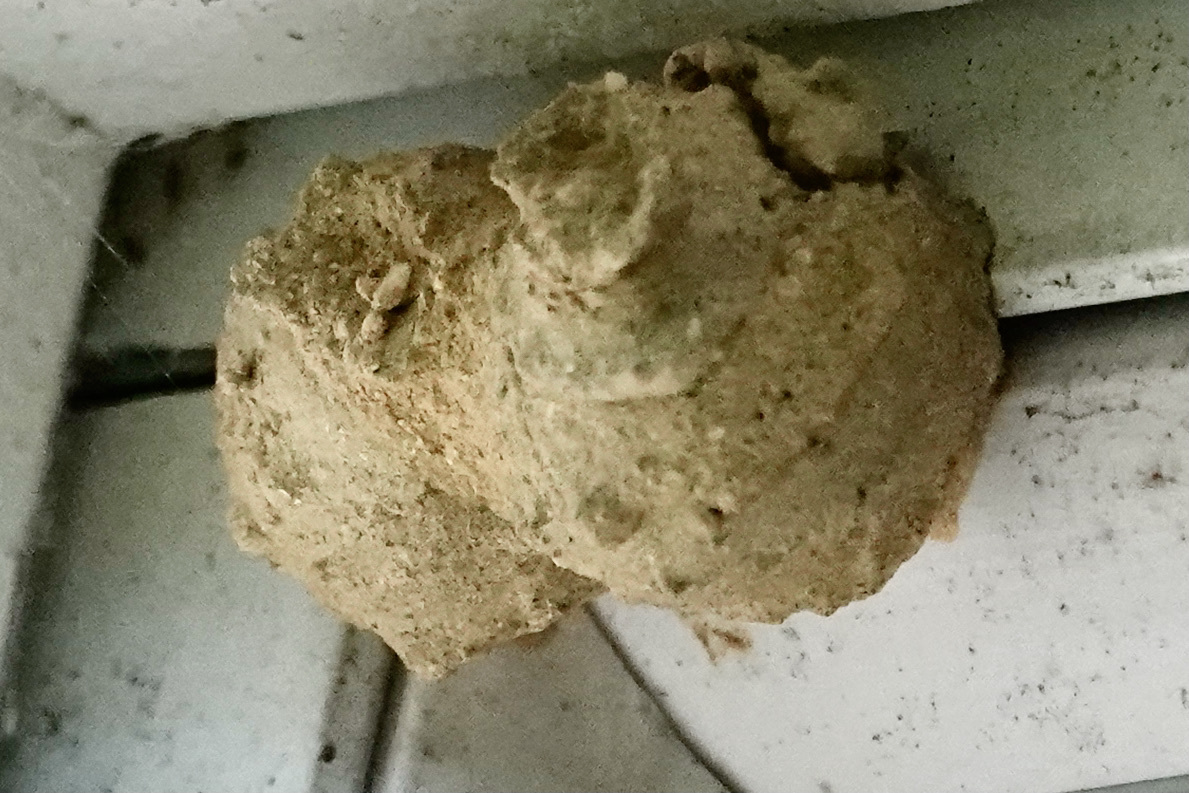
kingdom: Animalia
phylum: Arthropoda
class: Insecta
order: Hymenoptera
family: Vespidae
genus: Eumenes
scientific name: Eumenes
